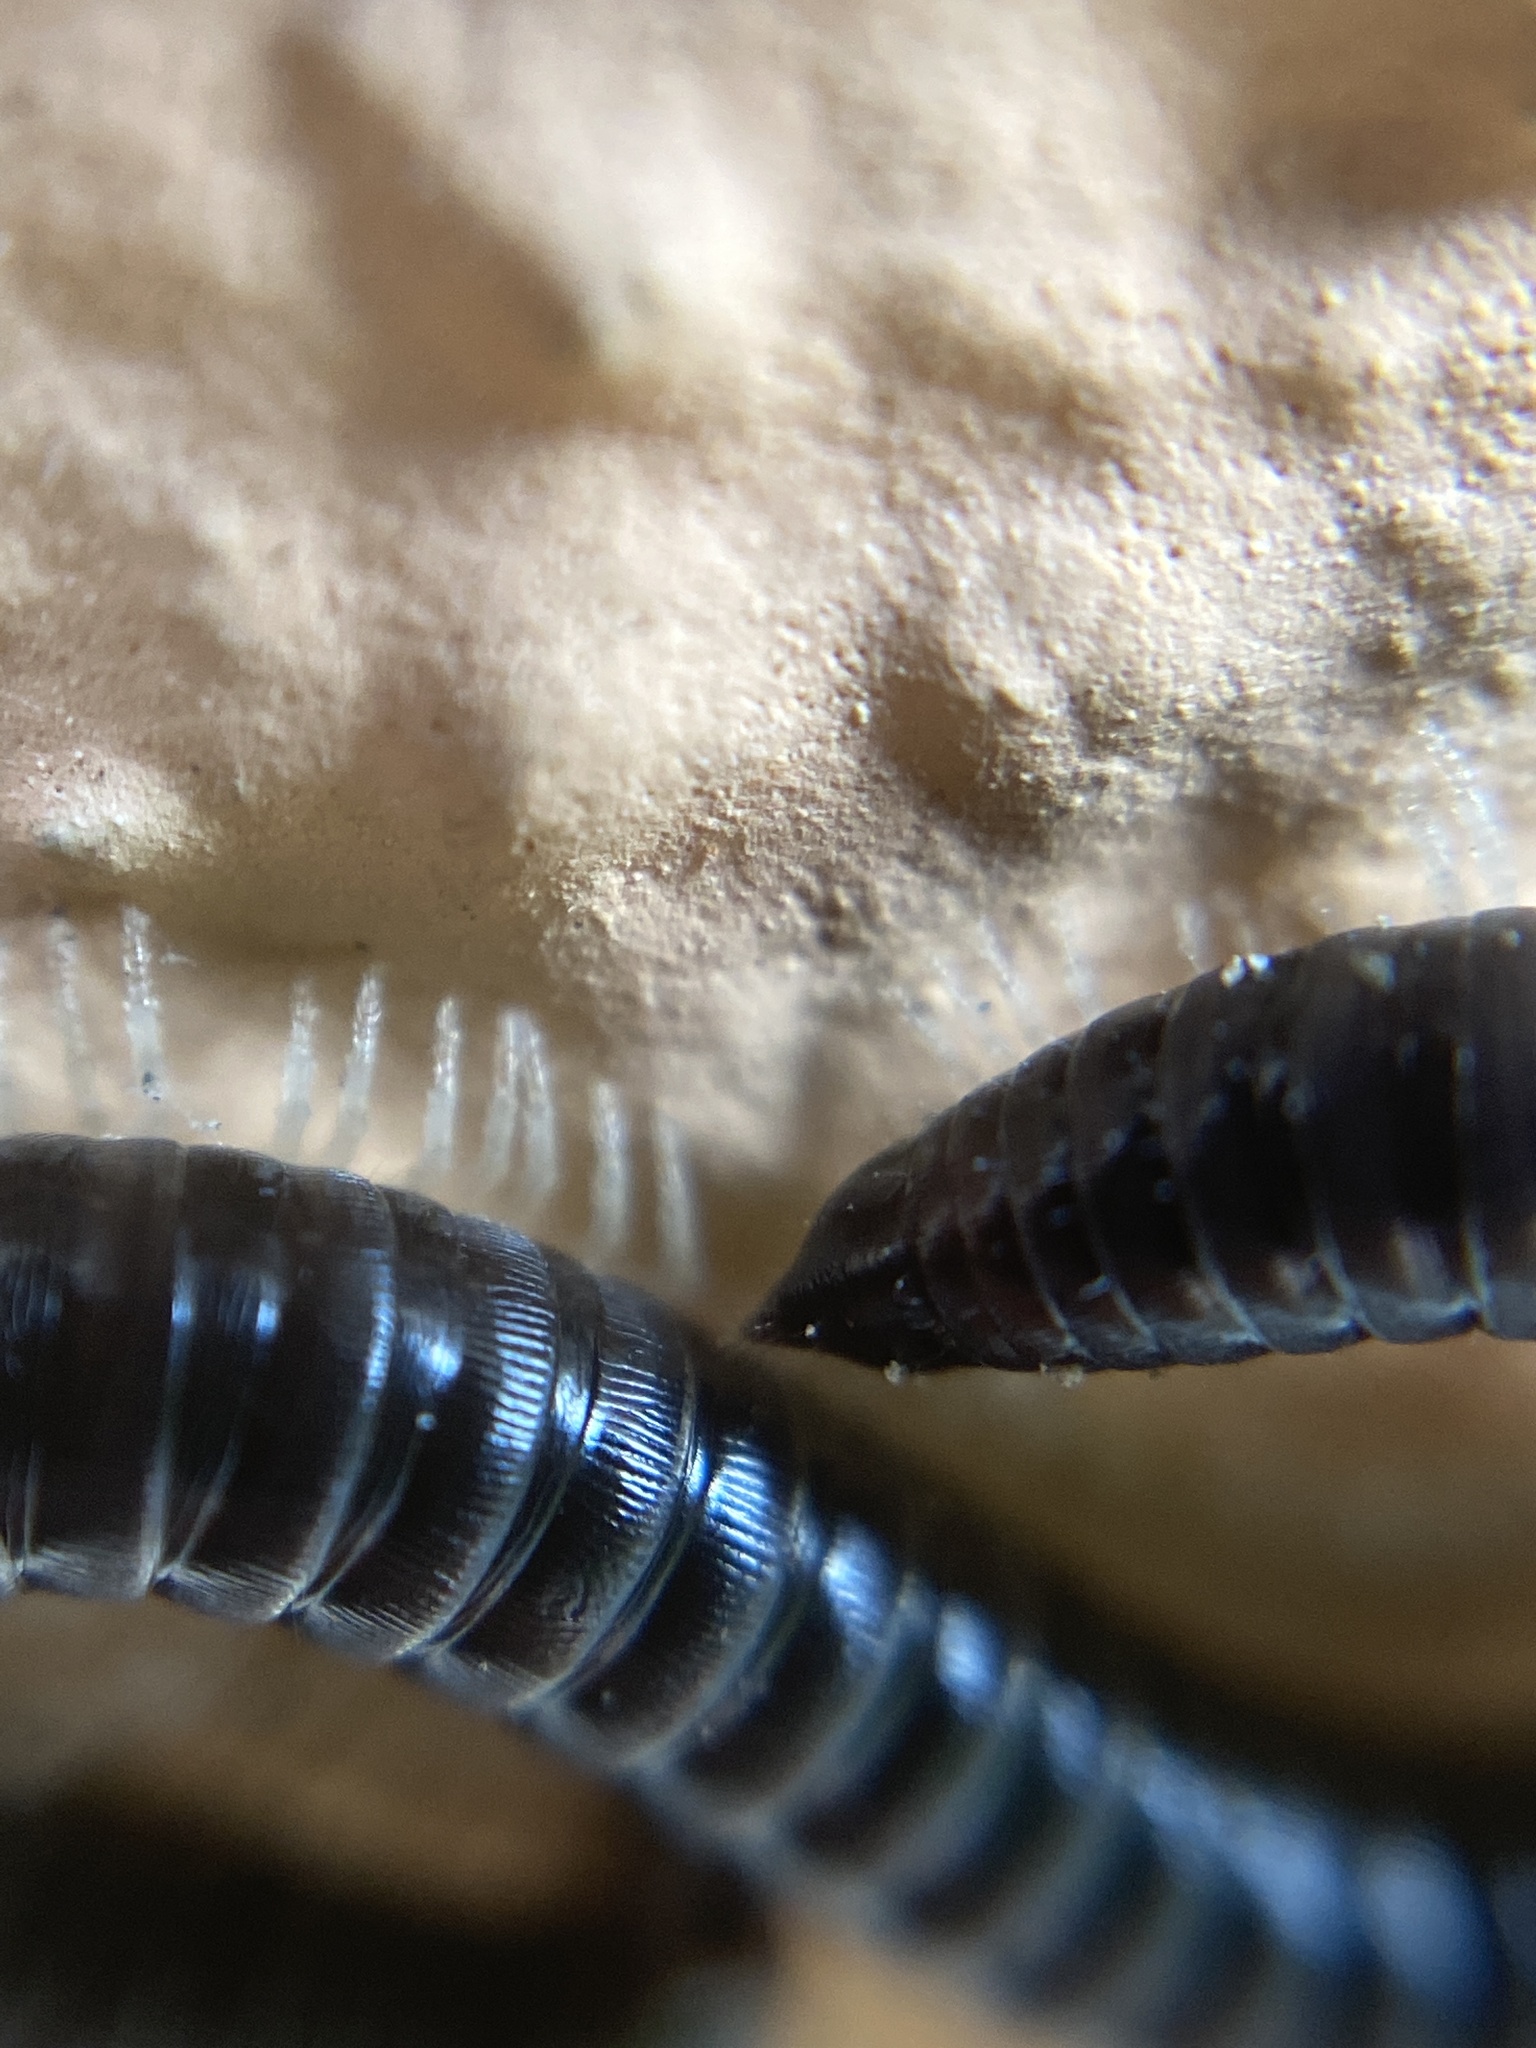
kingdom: Animalia
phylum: Arthropoda
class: Diplopoda
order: Julida
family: Julidae
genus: Tachypodoiulus
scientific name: Tachypodoiulus niger
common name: White-legged snake millipede
